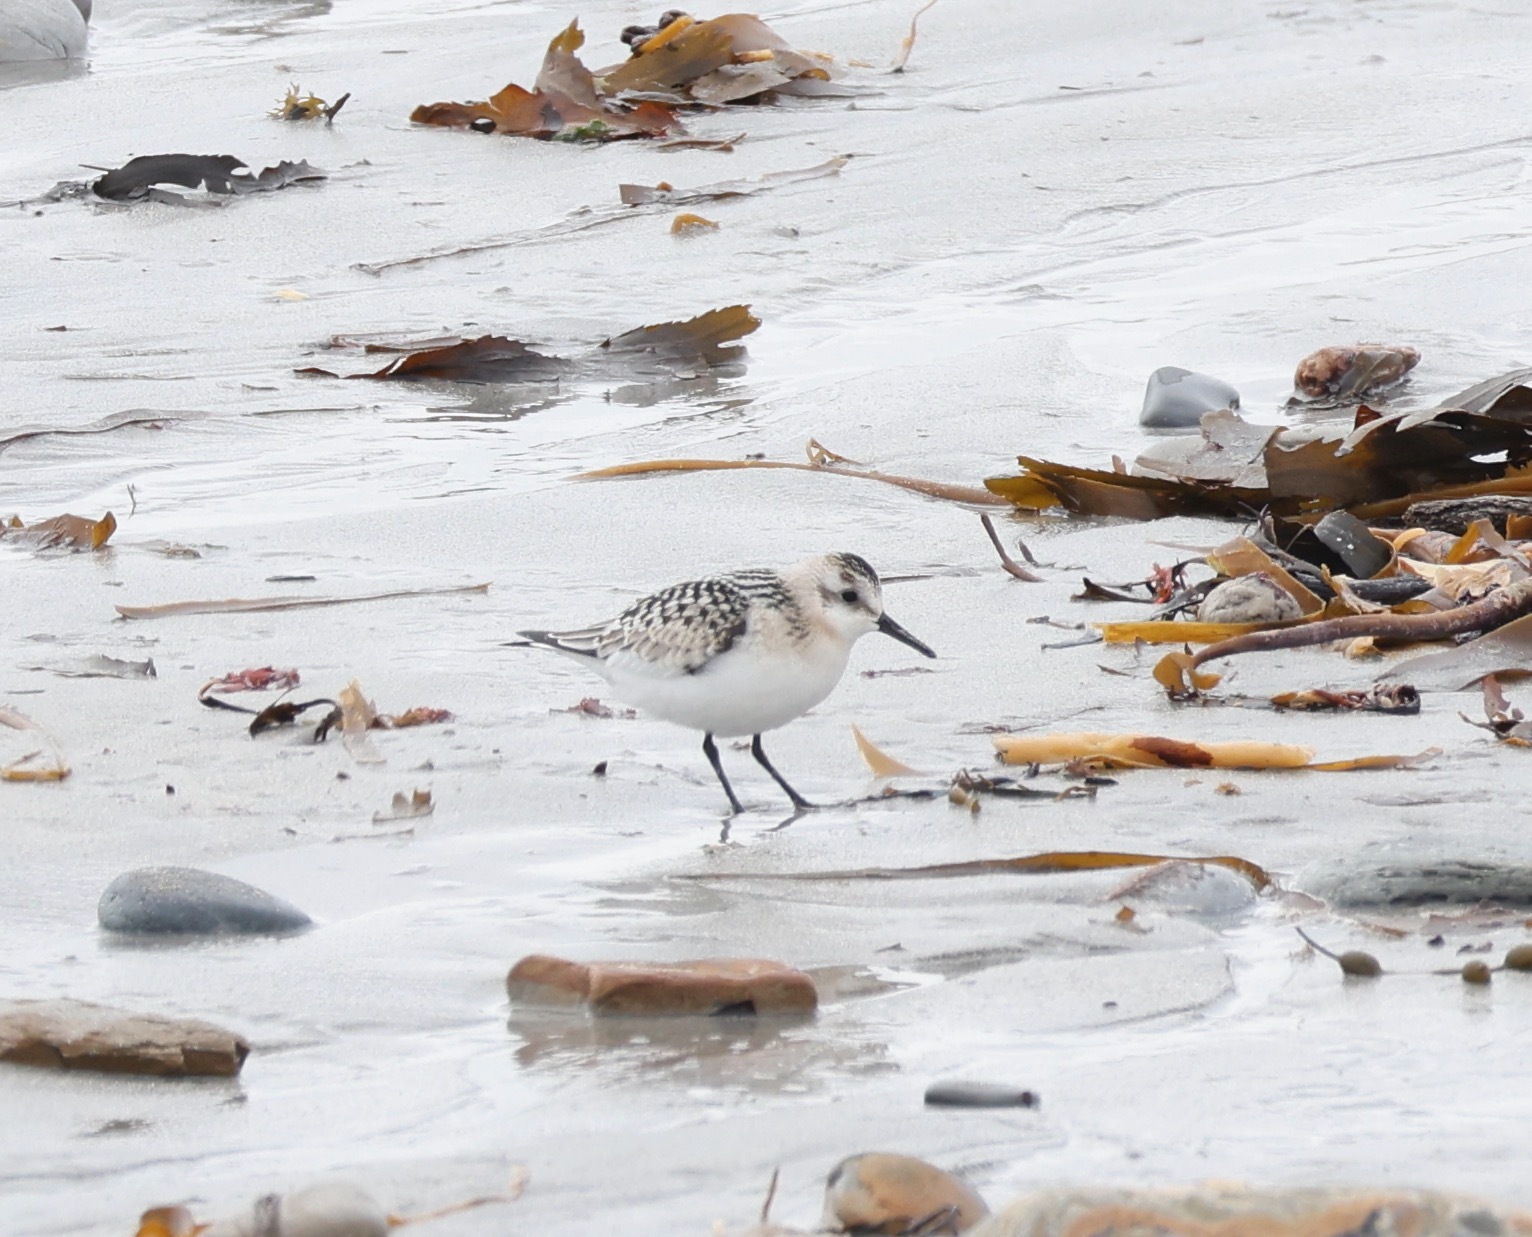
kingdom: Animalia
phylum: Chordata
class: Aves
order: Charadriiformes
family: Scolopacidae
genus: Calidris
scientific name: Calidris alba
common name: Sanderling
